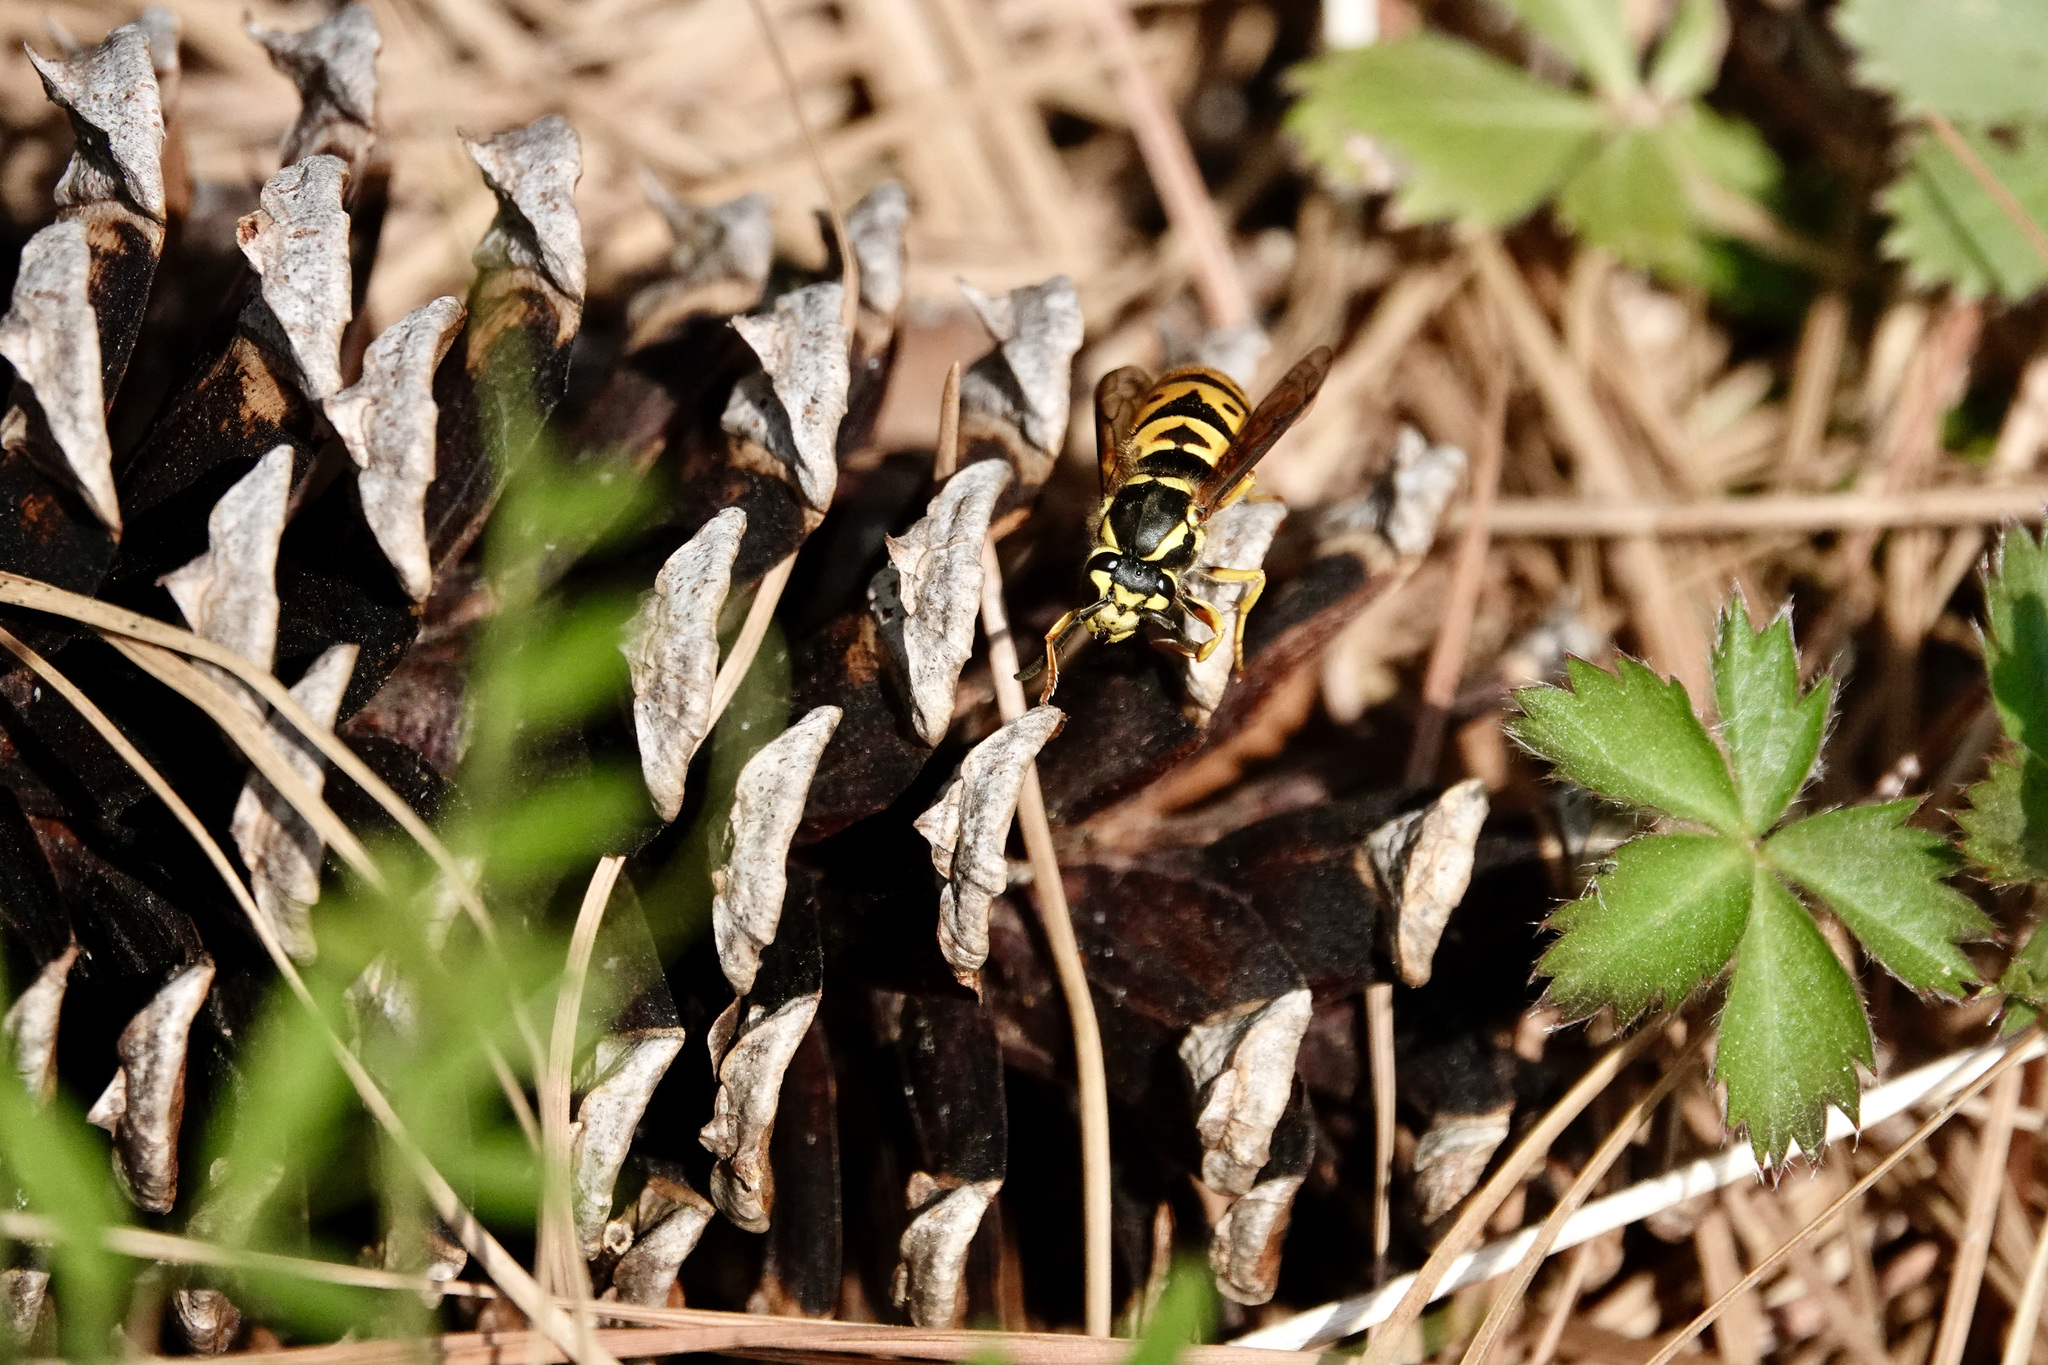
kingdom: Animalia
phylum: Arthropoda
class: Insecta
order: Hymenoptera
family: Vespidae
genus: Vespula
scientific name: Vespula maculifrons
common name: Eastern yellowjacket
